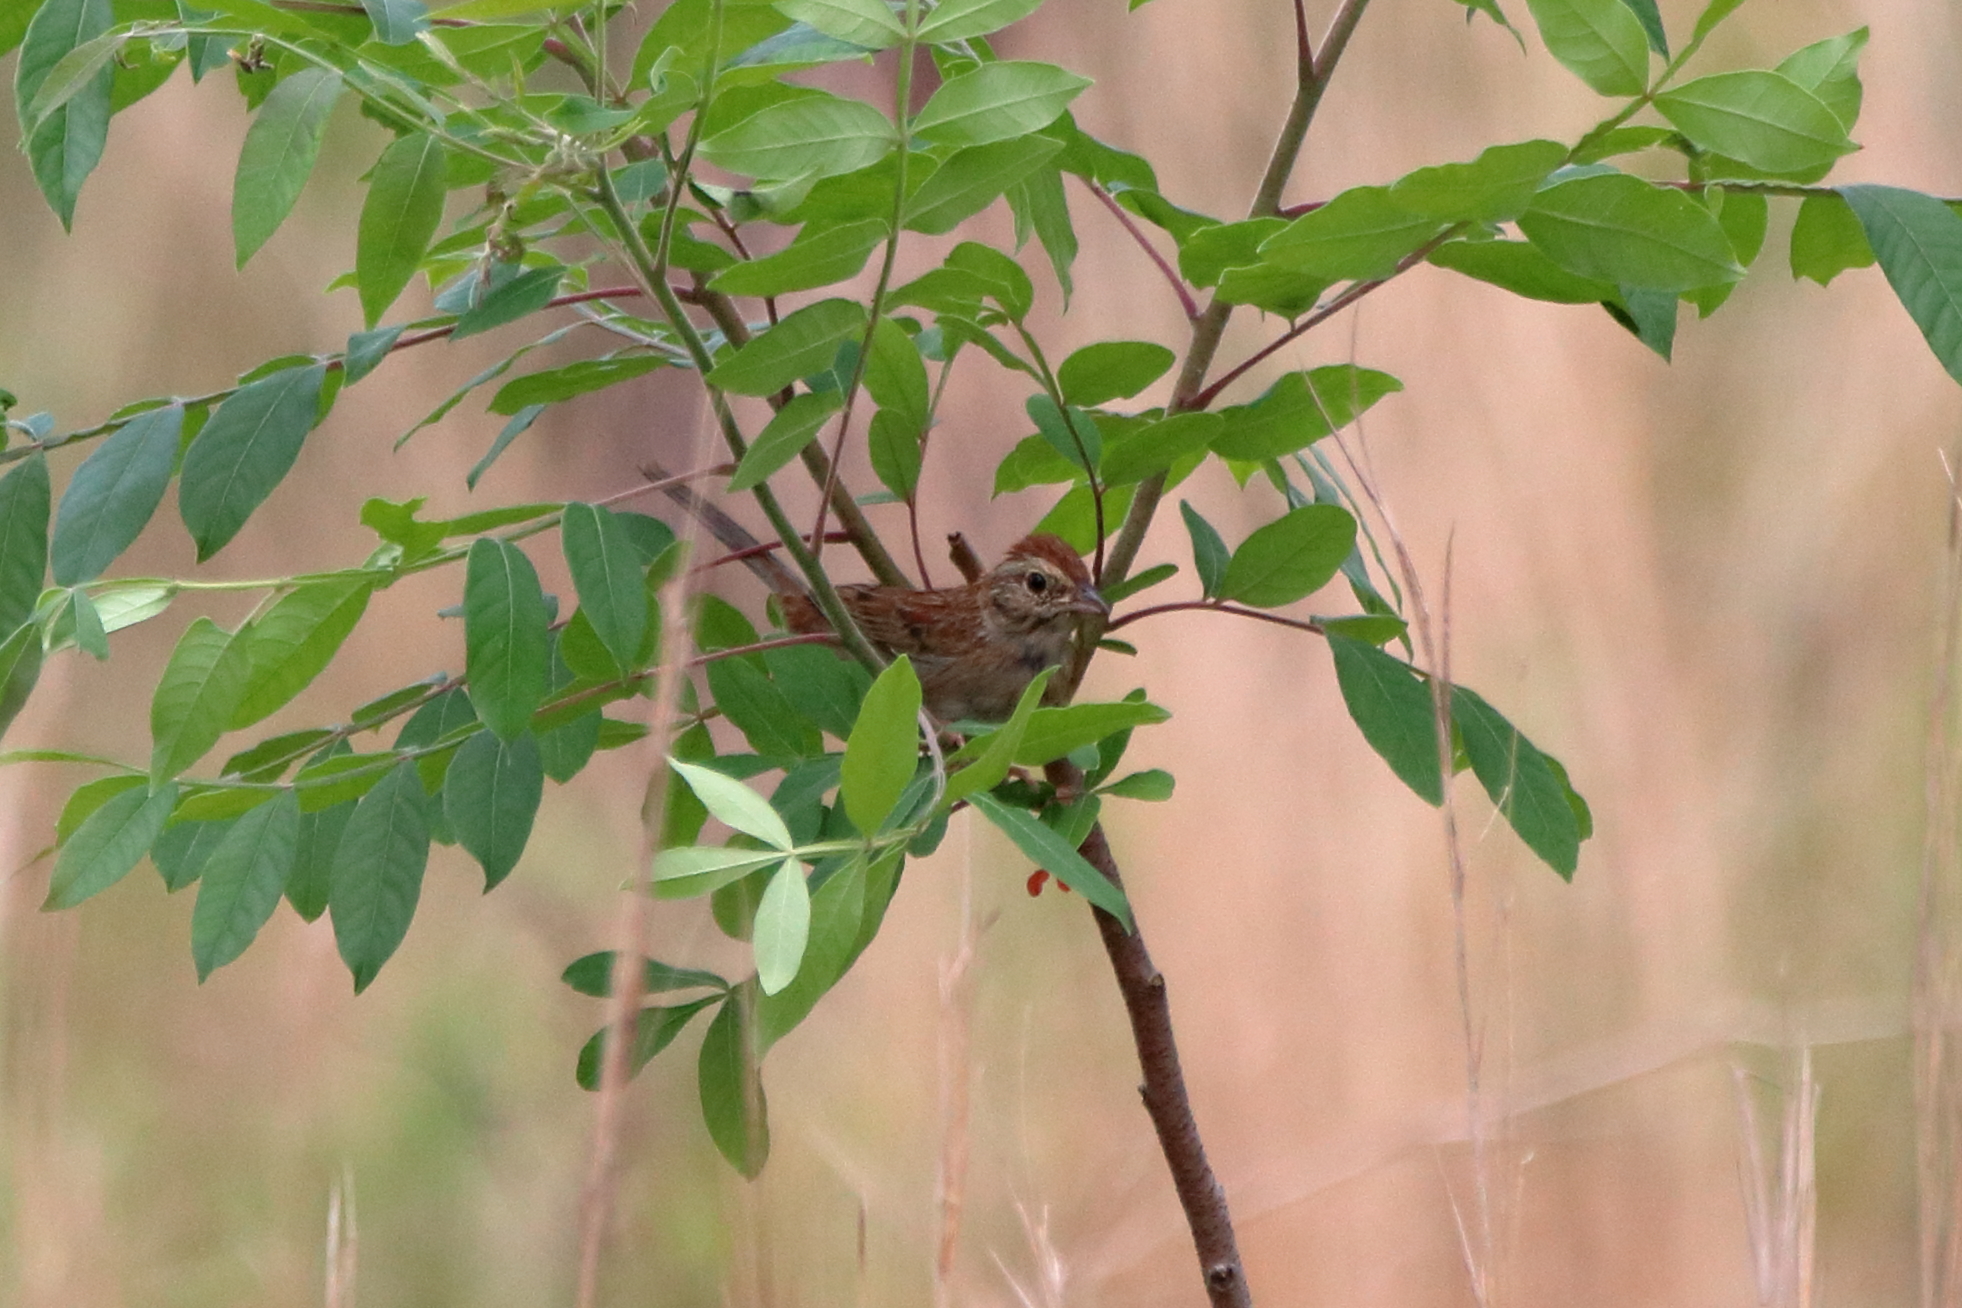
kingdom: Animalia
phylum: Chordata
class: Aves
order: Passeriformes
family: Passerellidae
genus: Peucaea
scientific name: Peucaea aestivalis
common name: Bachman's sparrow
